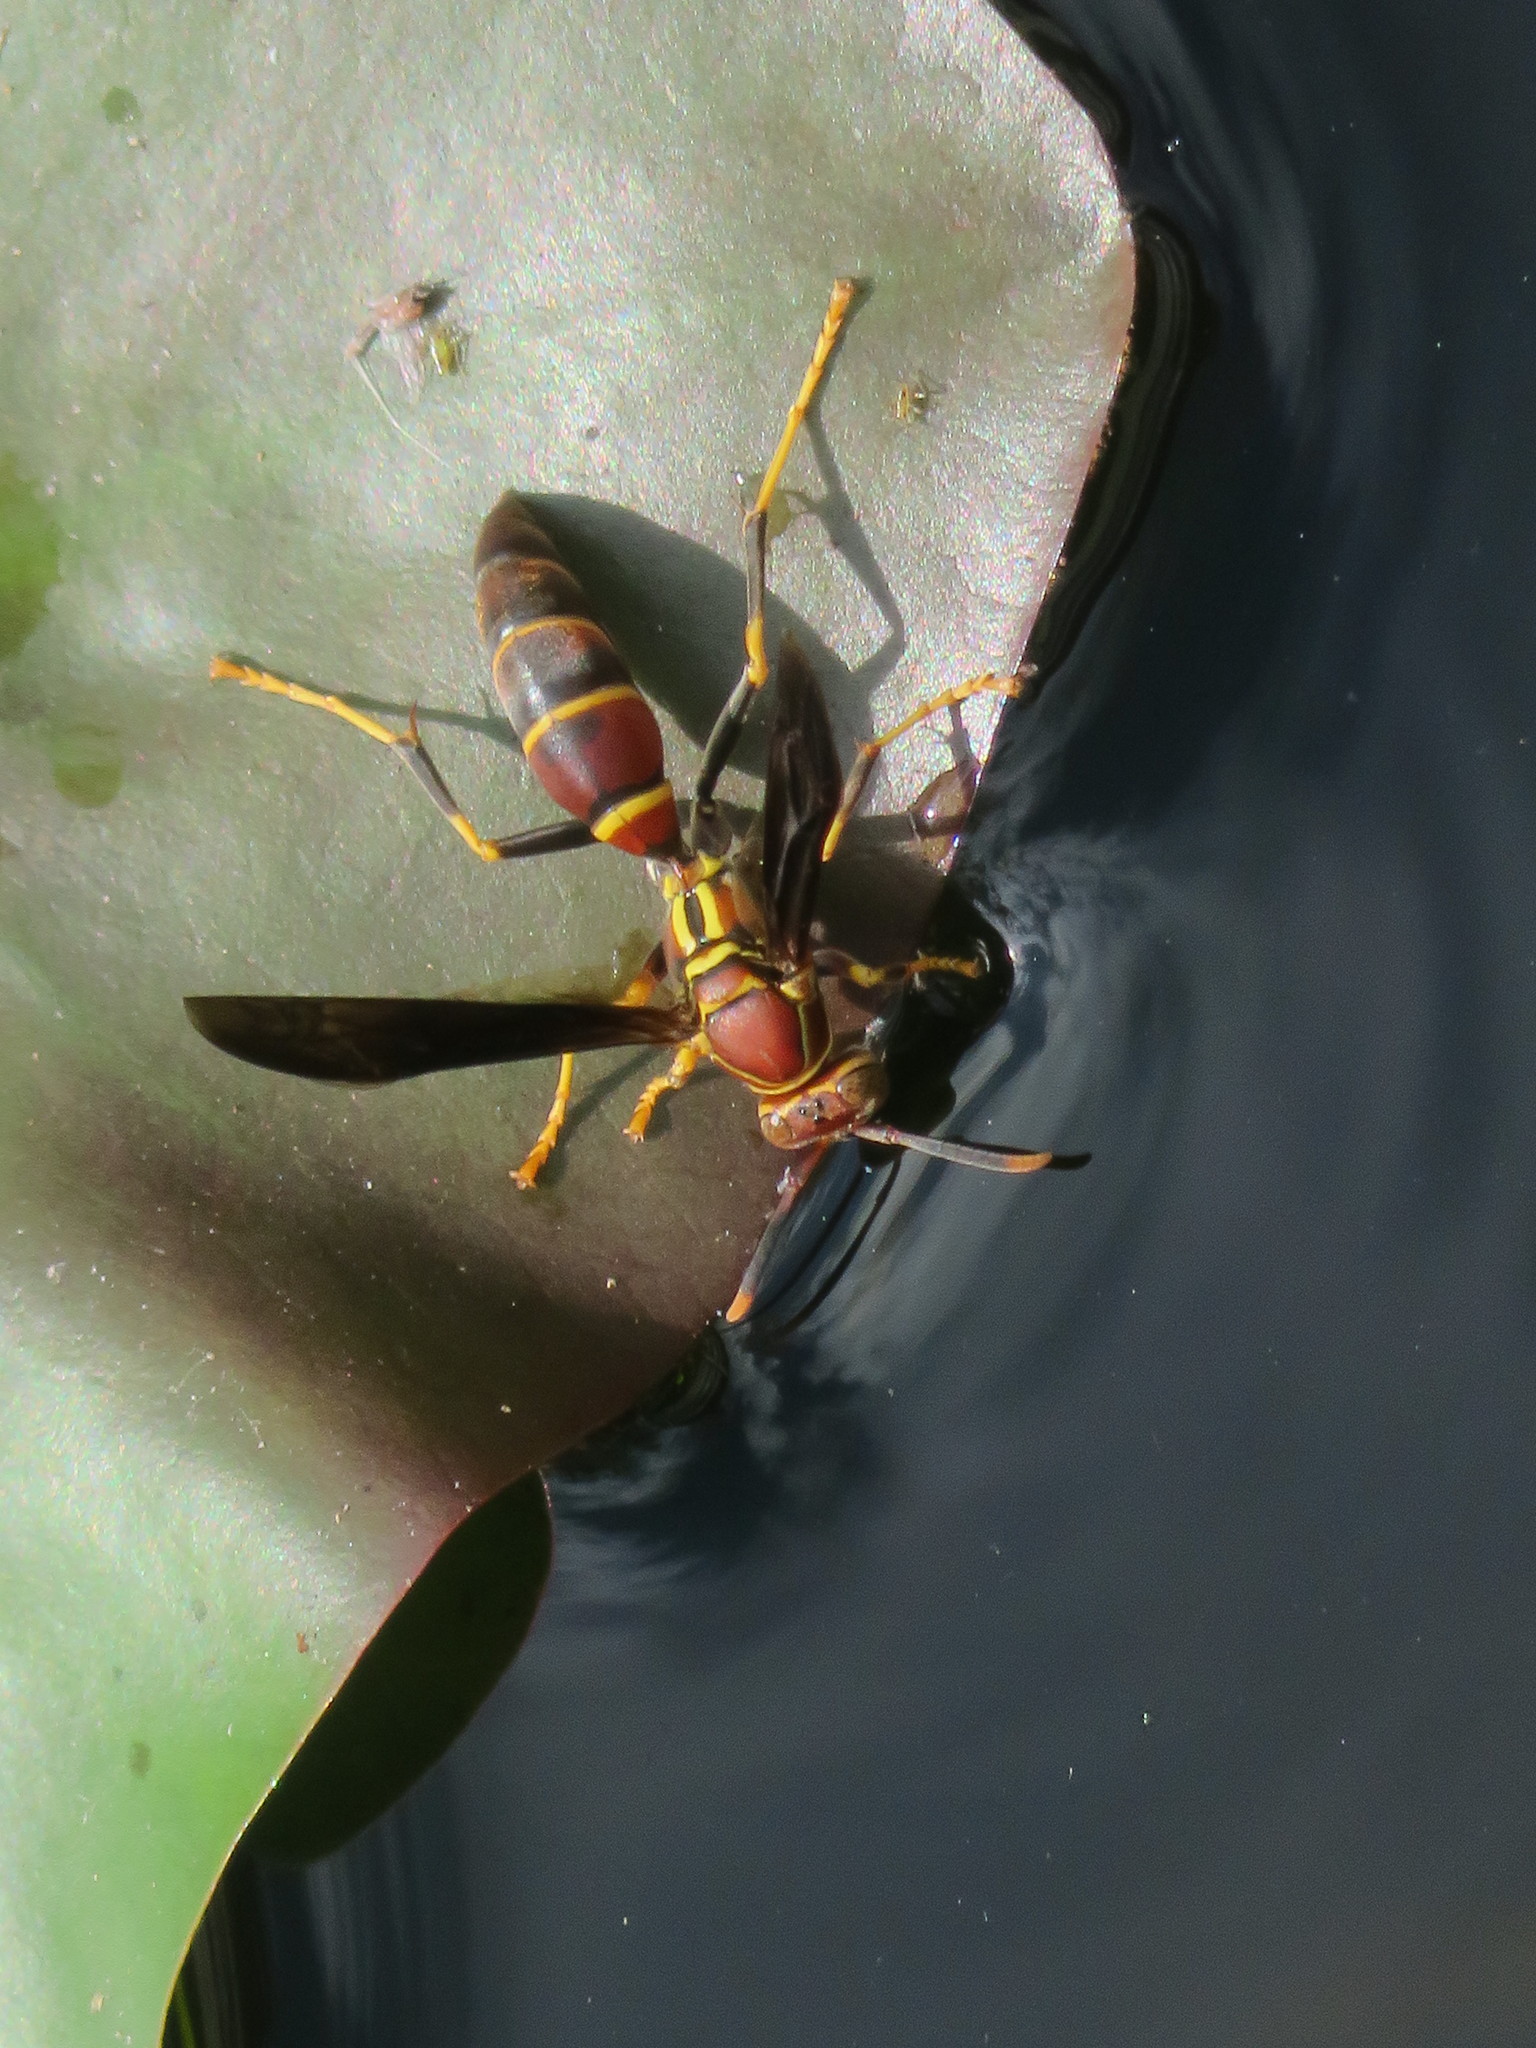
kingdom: Animalia
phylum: Arthropoda
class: Insecta
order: Hymenoptera
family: Eumenidae
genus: Polistes
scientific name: Polistes bahamensis
